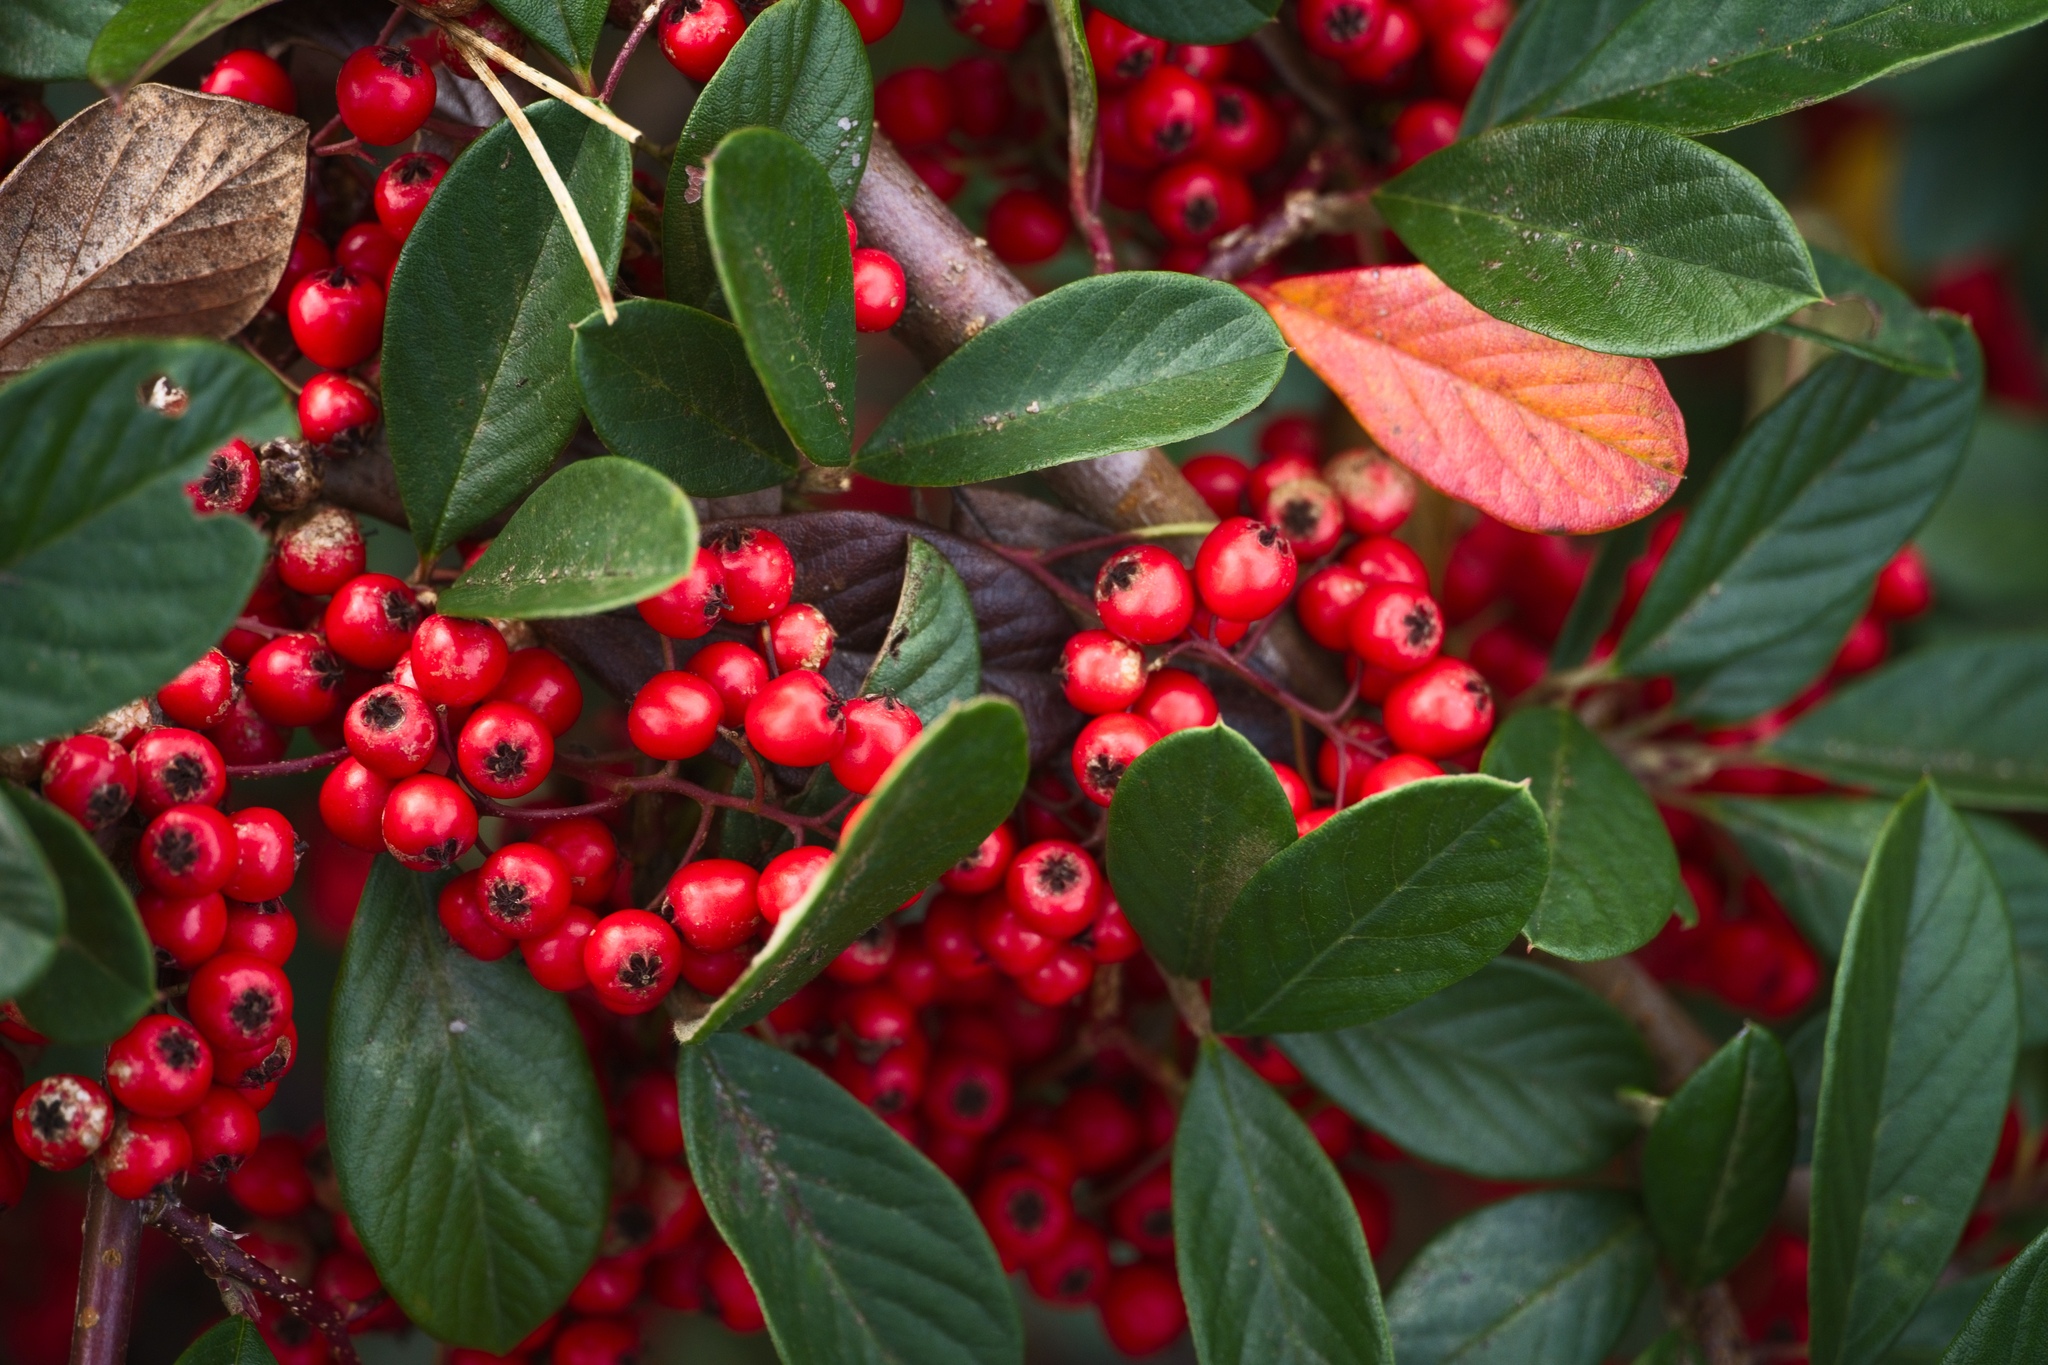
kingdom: Plantae
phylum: Tracheophyta
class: Magnoliopsida
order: Rosales
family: Rosaceae
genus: Cotoneaster
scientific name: Cotoneaster coriaceus
